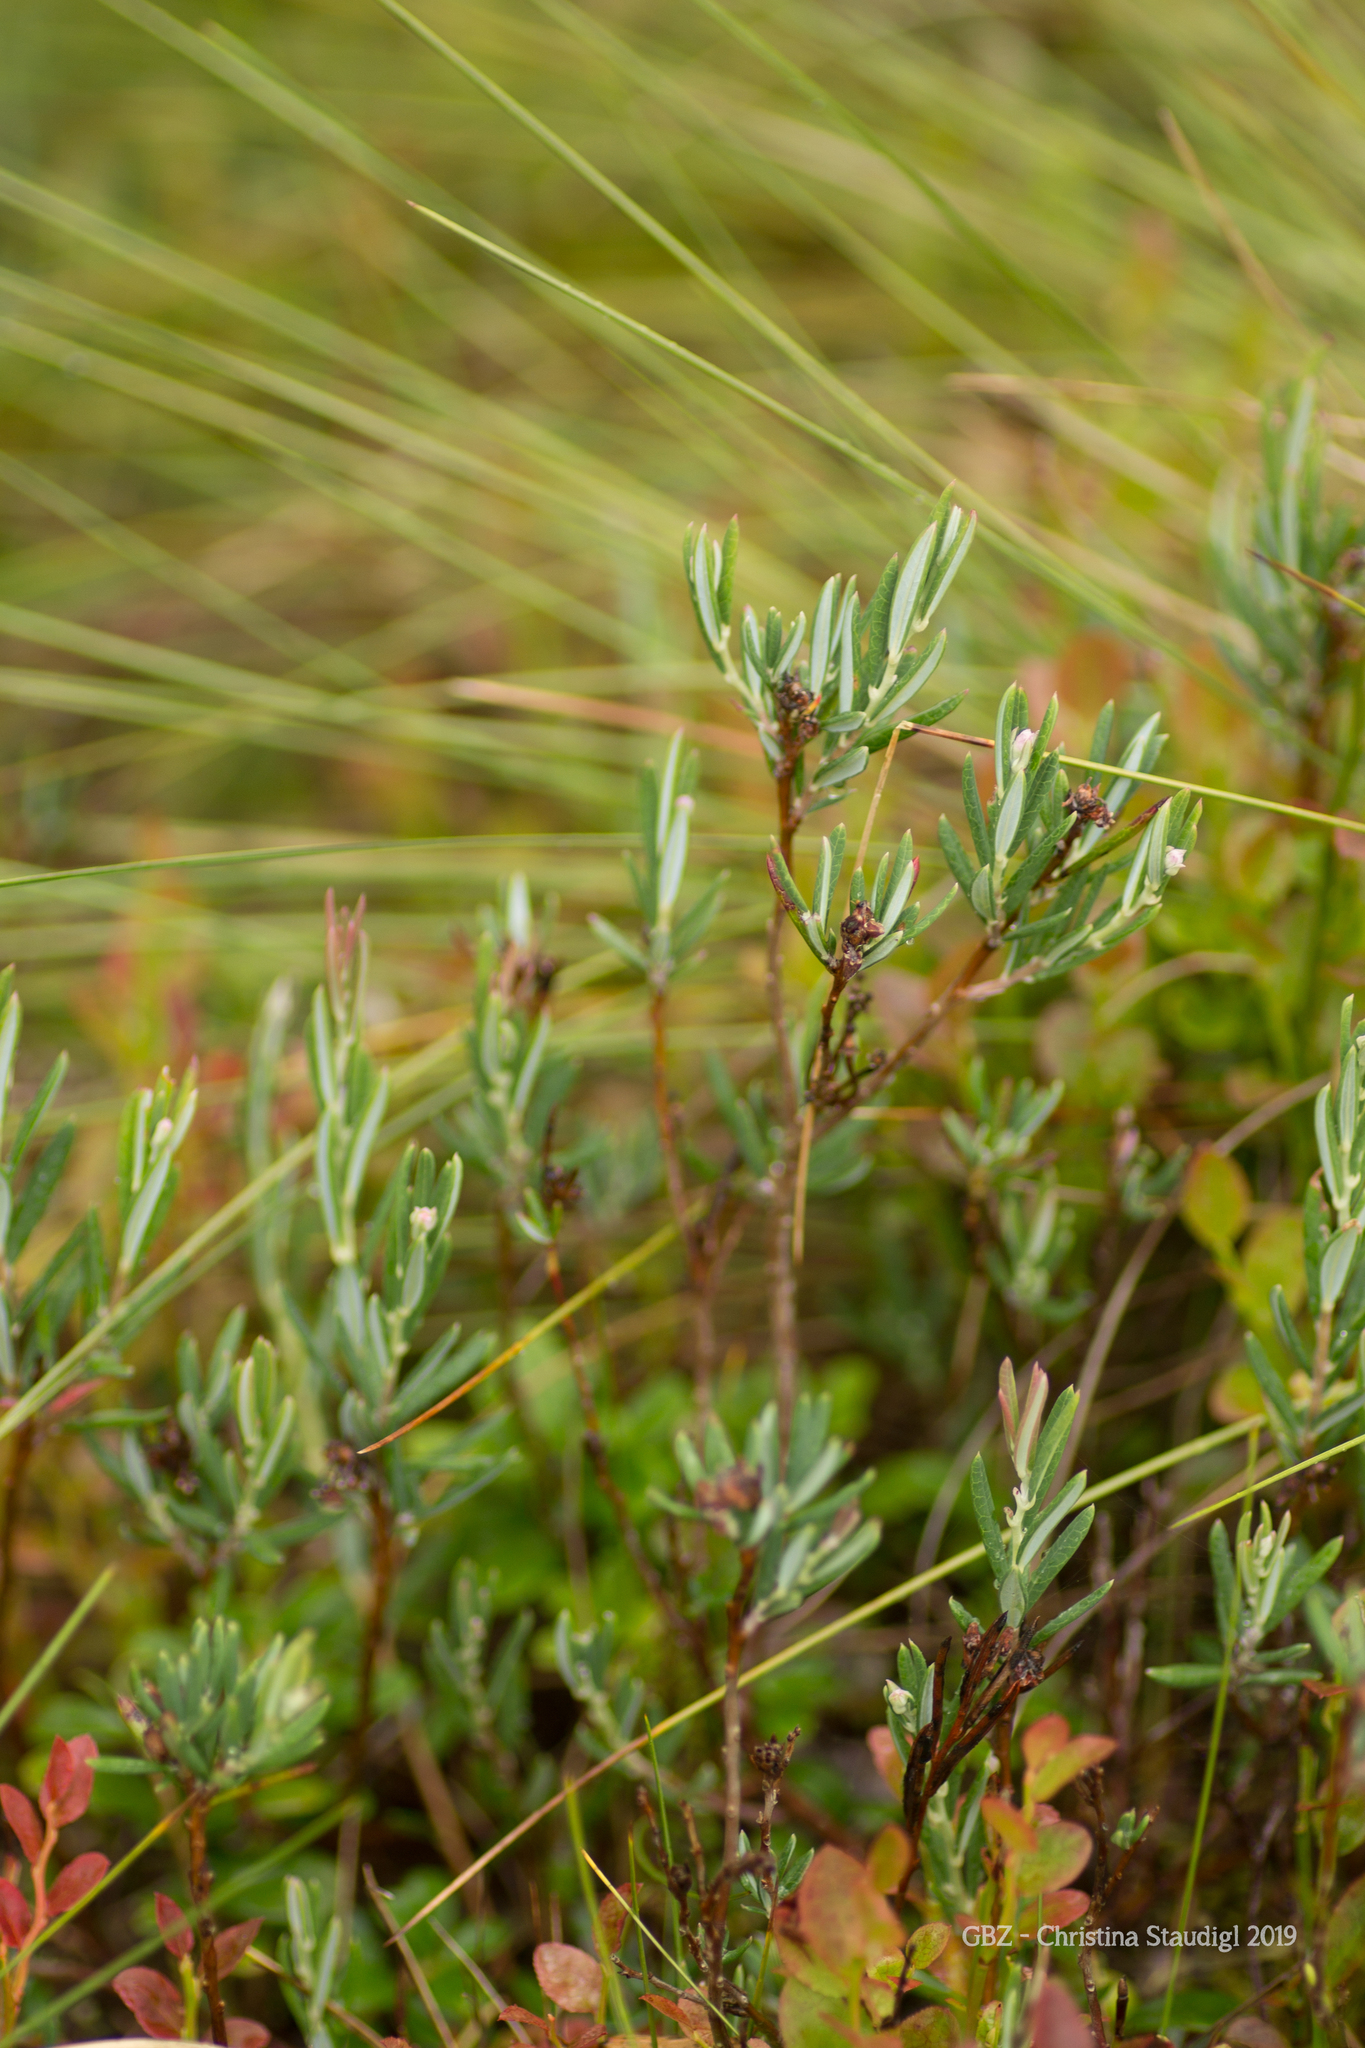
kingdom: Plantae
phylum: Tracheophyta
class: Magnoliopsida
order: Ericales
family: Ericaceae
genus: Andromeda
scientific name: Andromeda polifolia
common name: Bog-rosemary
